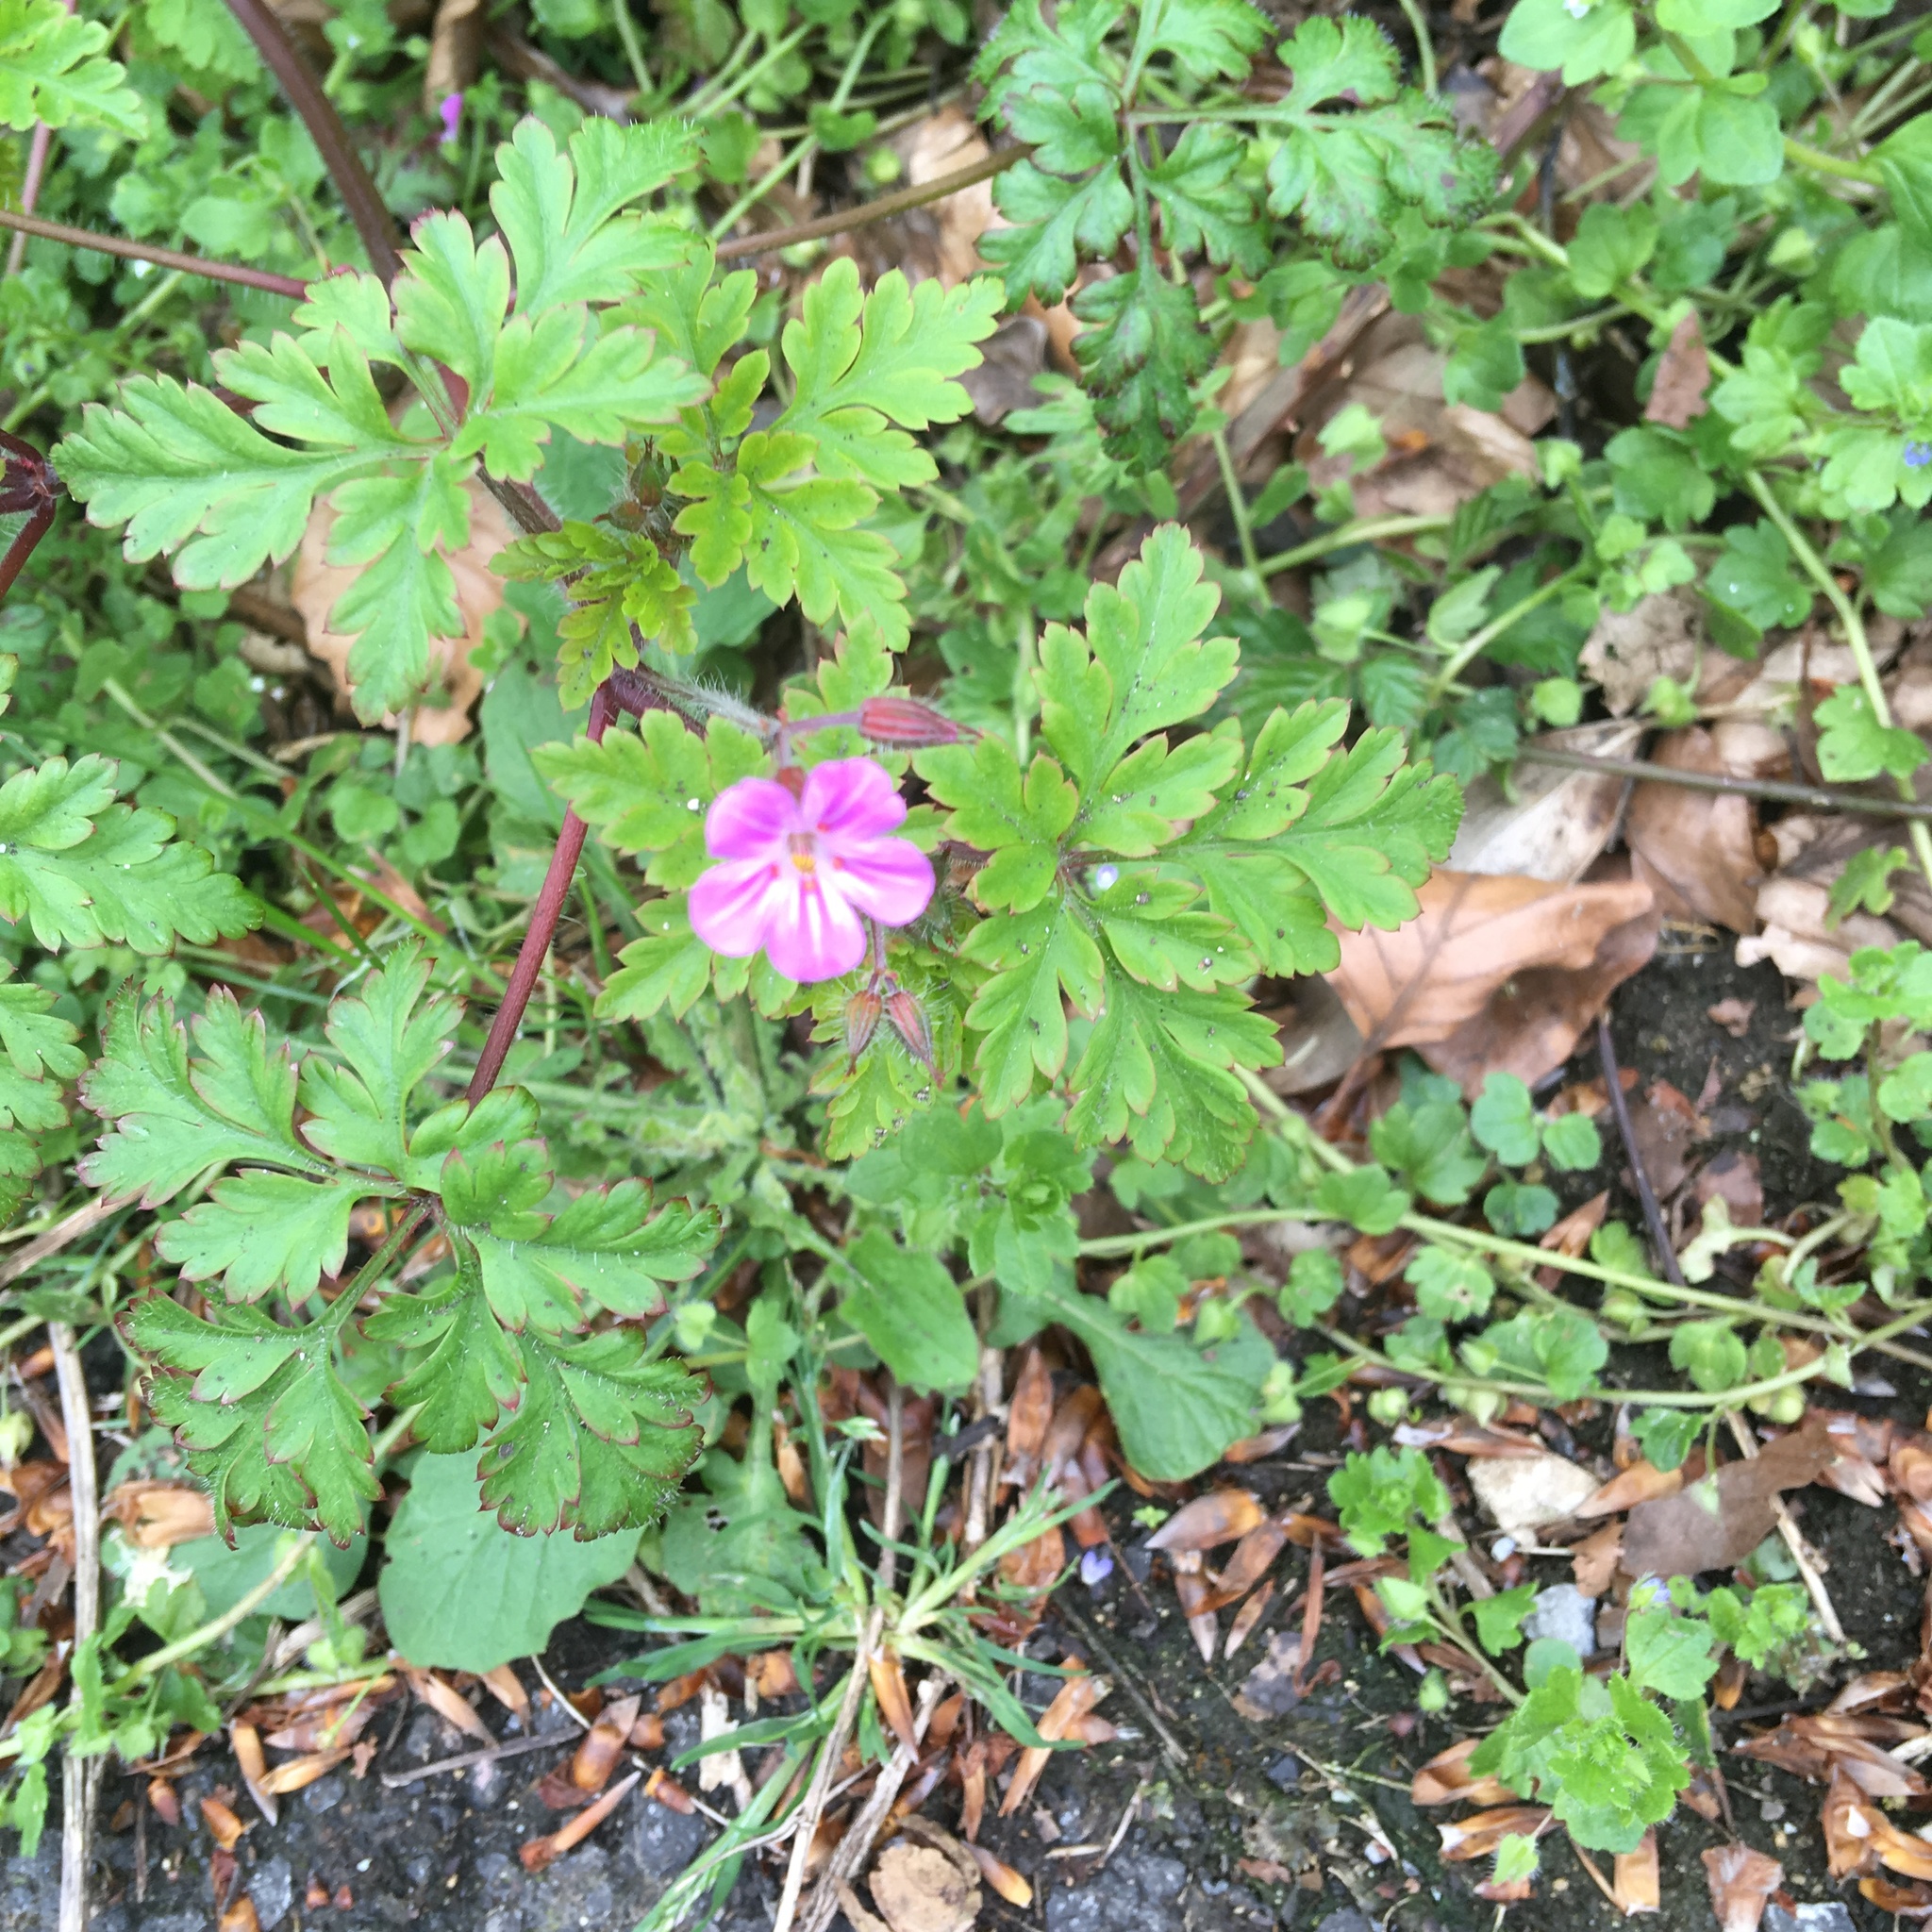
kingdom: Plantae
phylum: Tracheophyta
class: Magnoliopsida
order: Geraniales
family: Geraniaceae
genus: Geranium
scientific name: Geranium robertianum
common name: Herb-robert
